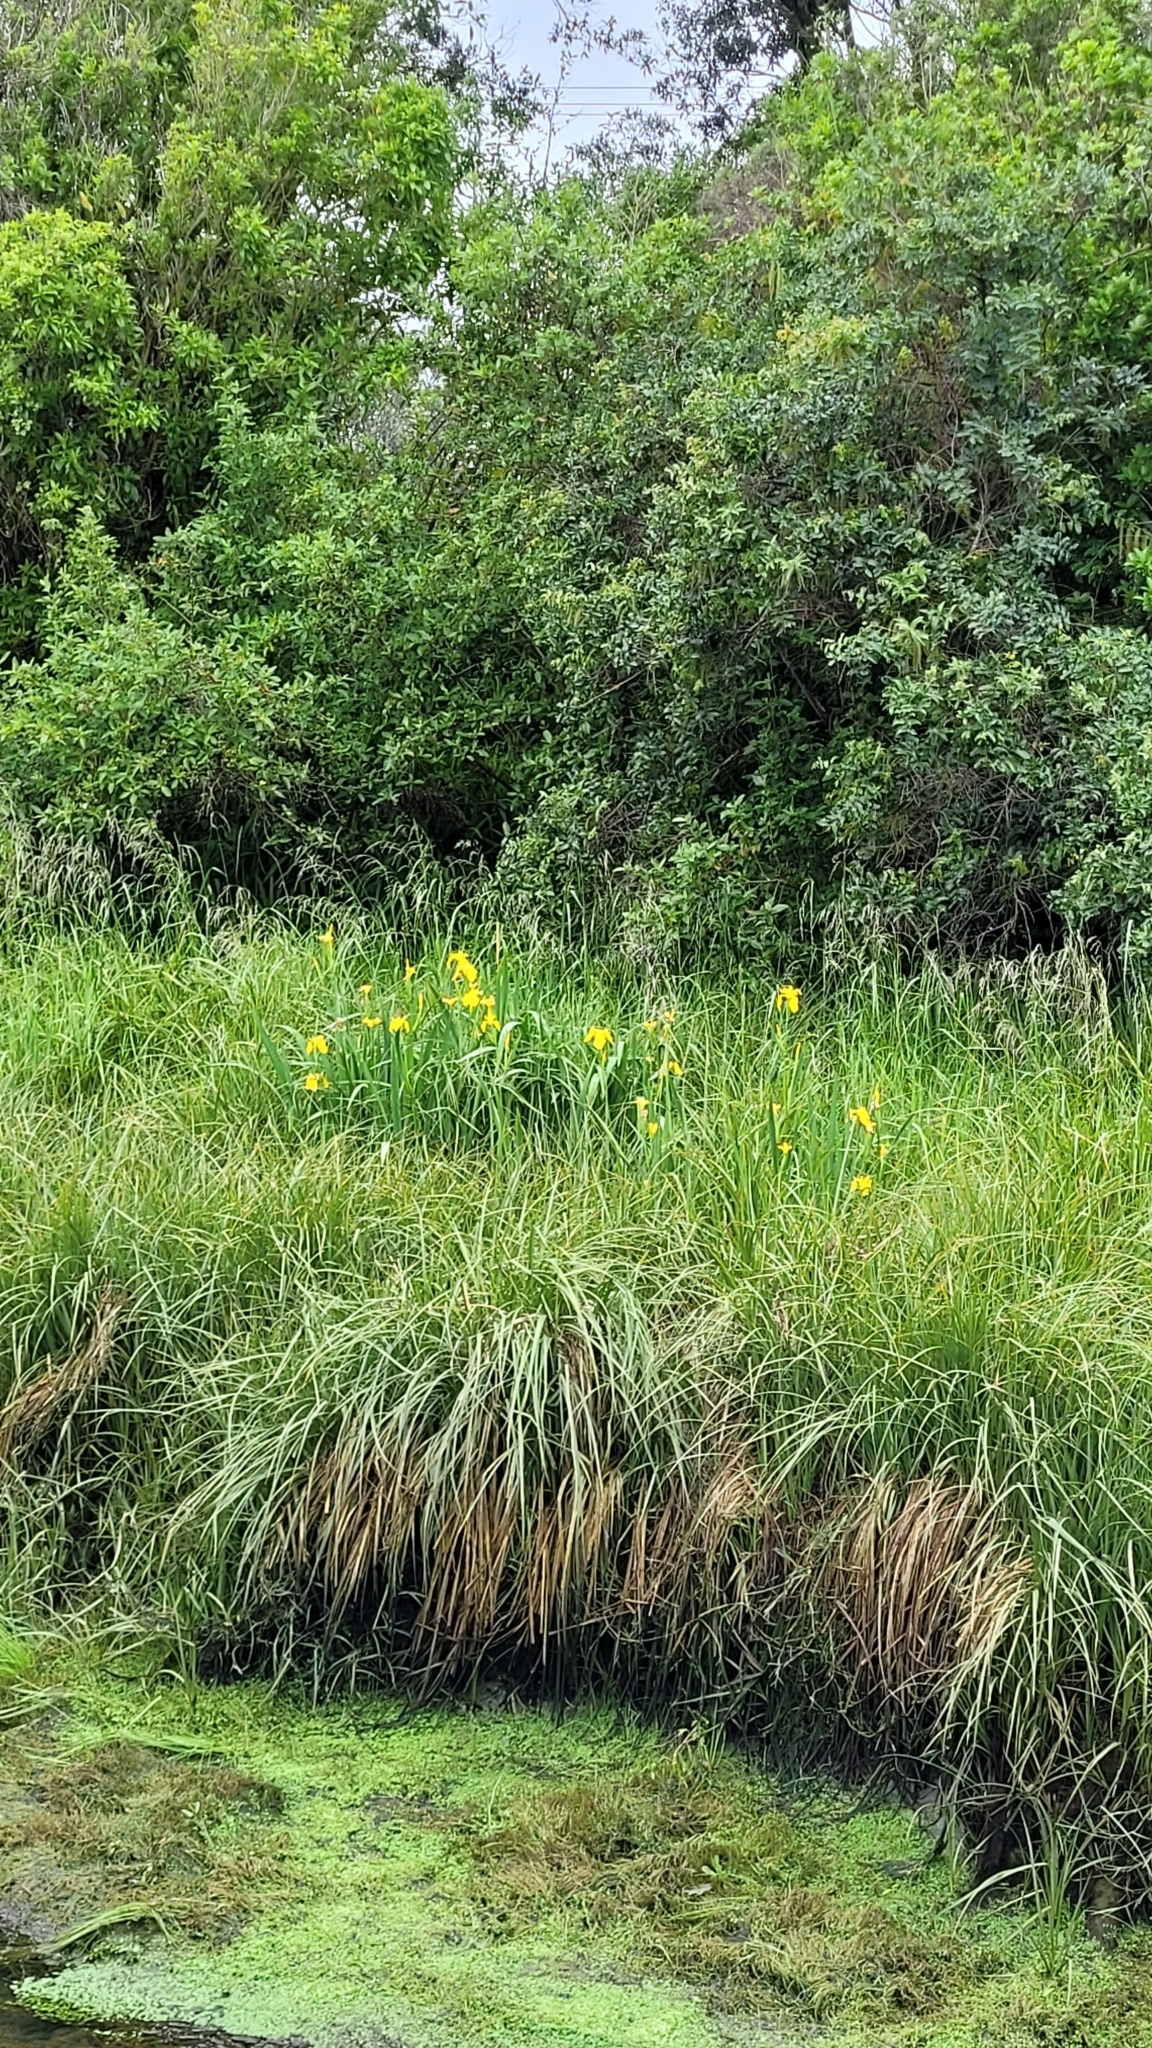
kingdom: Plantae
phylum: Tracheophyta
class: Liliopsida
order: Asparagales
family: Iridaceae
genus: Iris
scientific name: Iris pseudacorus
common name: Yellow flag
